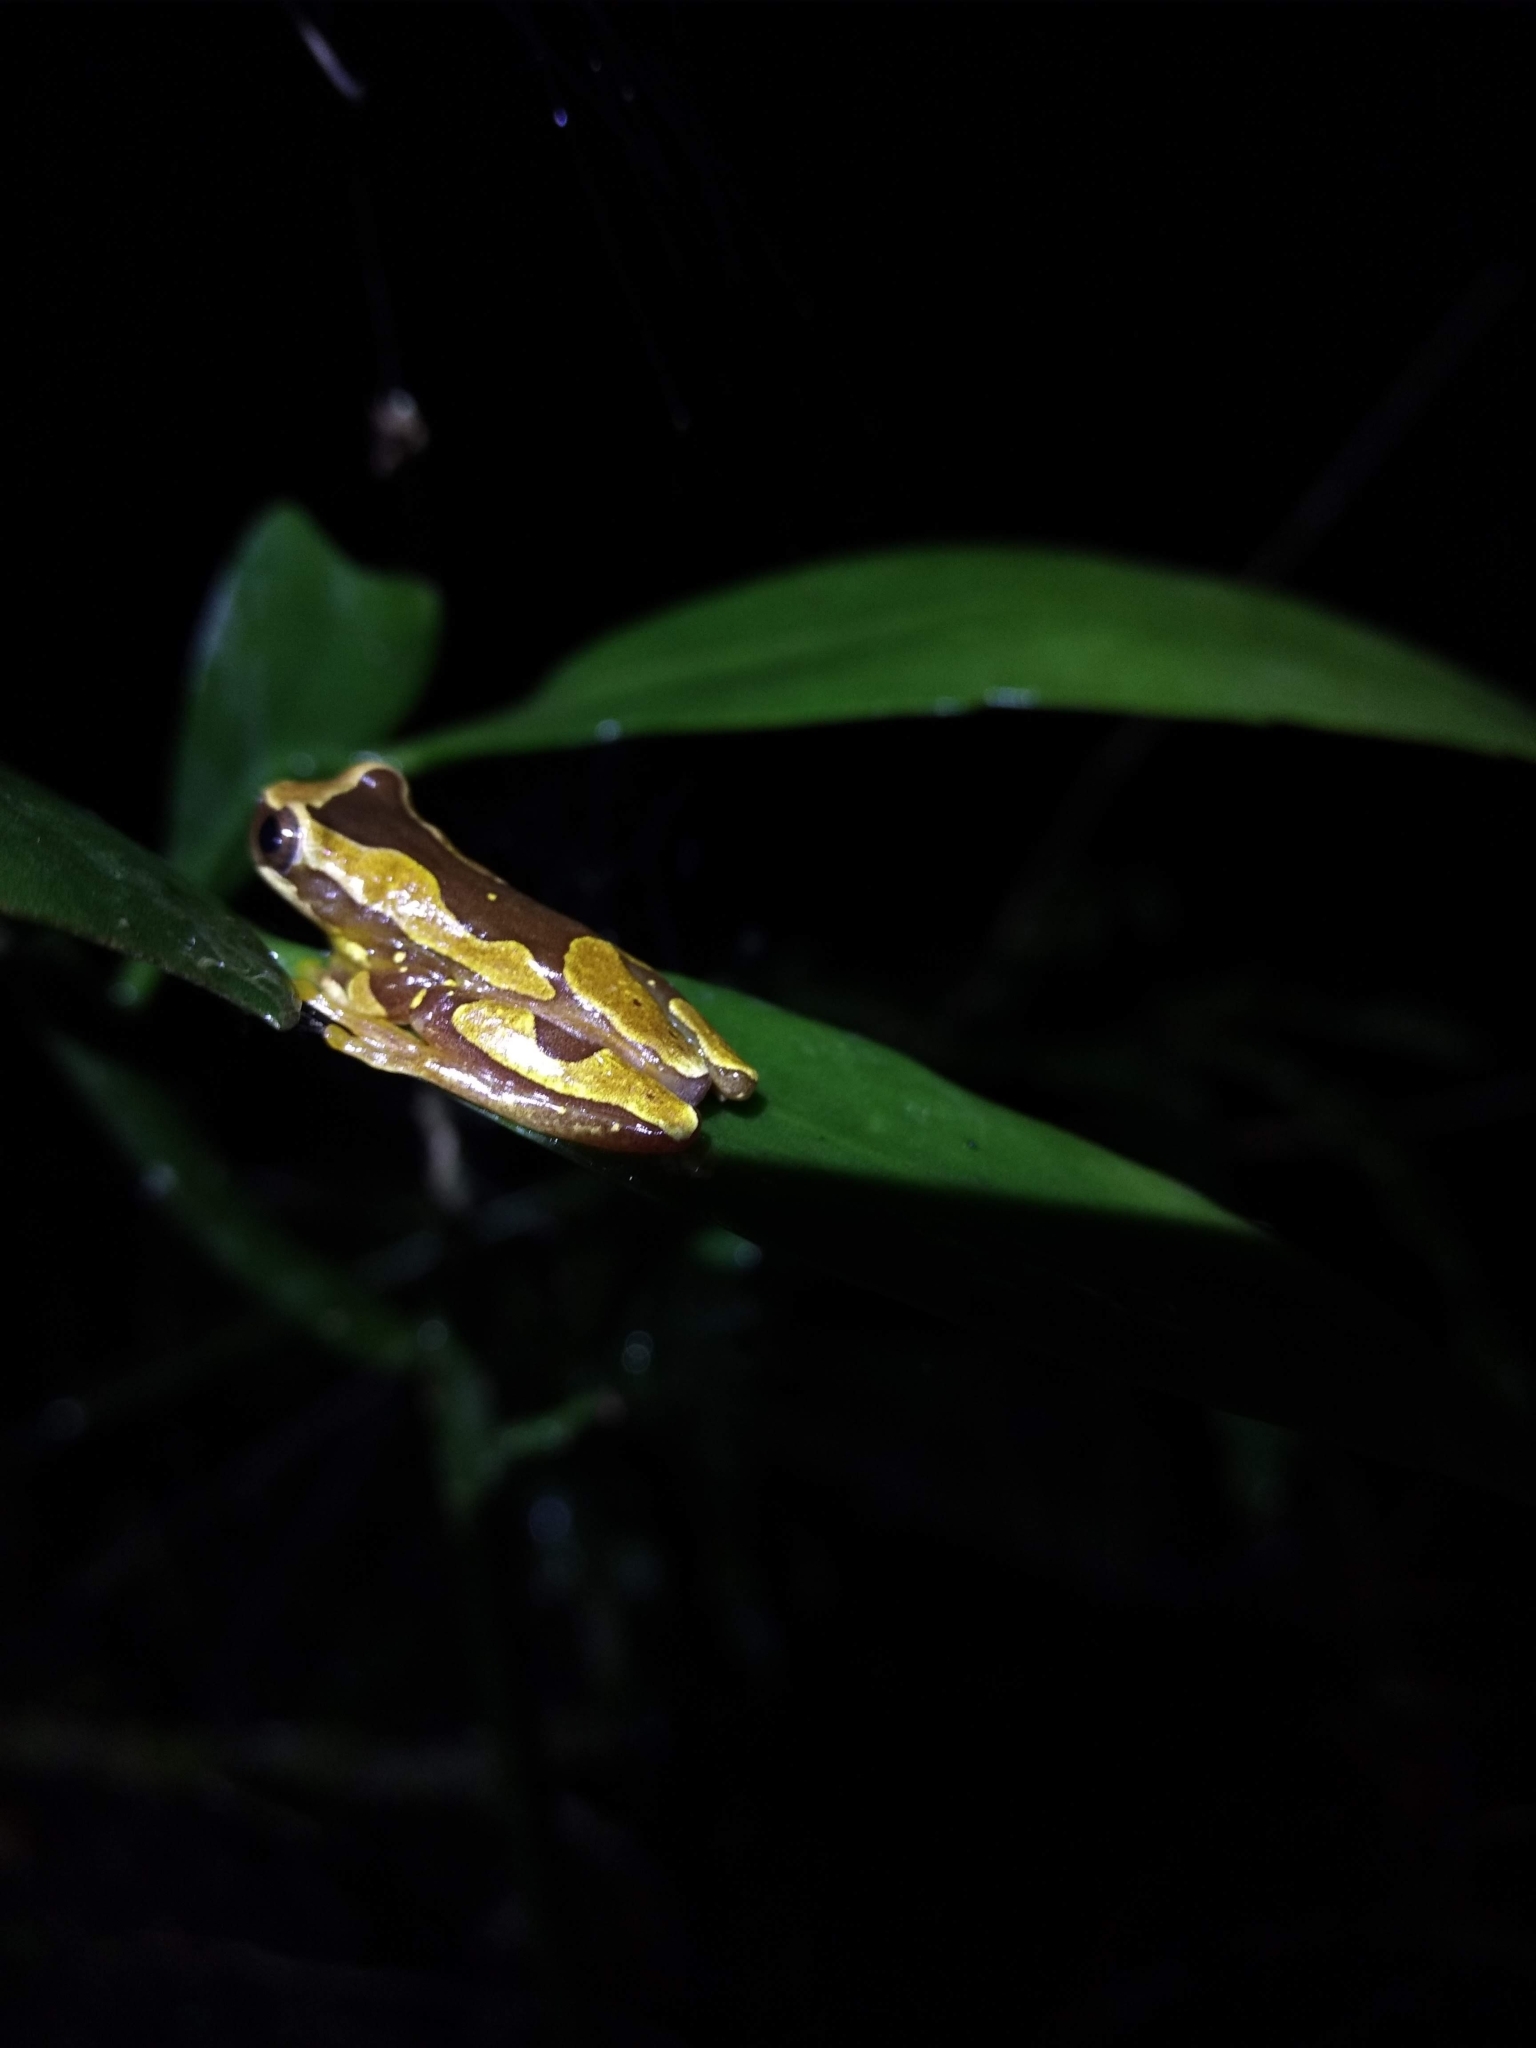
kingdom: Animalia
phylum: Chordata
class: Amphibia
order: Anura
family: Hylidae
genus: Dendropsophus
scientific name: Dendropsophus ebraccatus
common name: Hourglass treefrog
